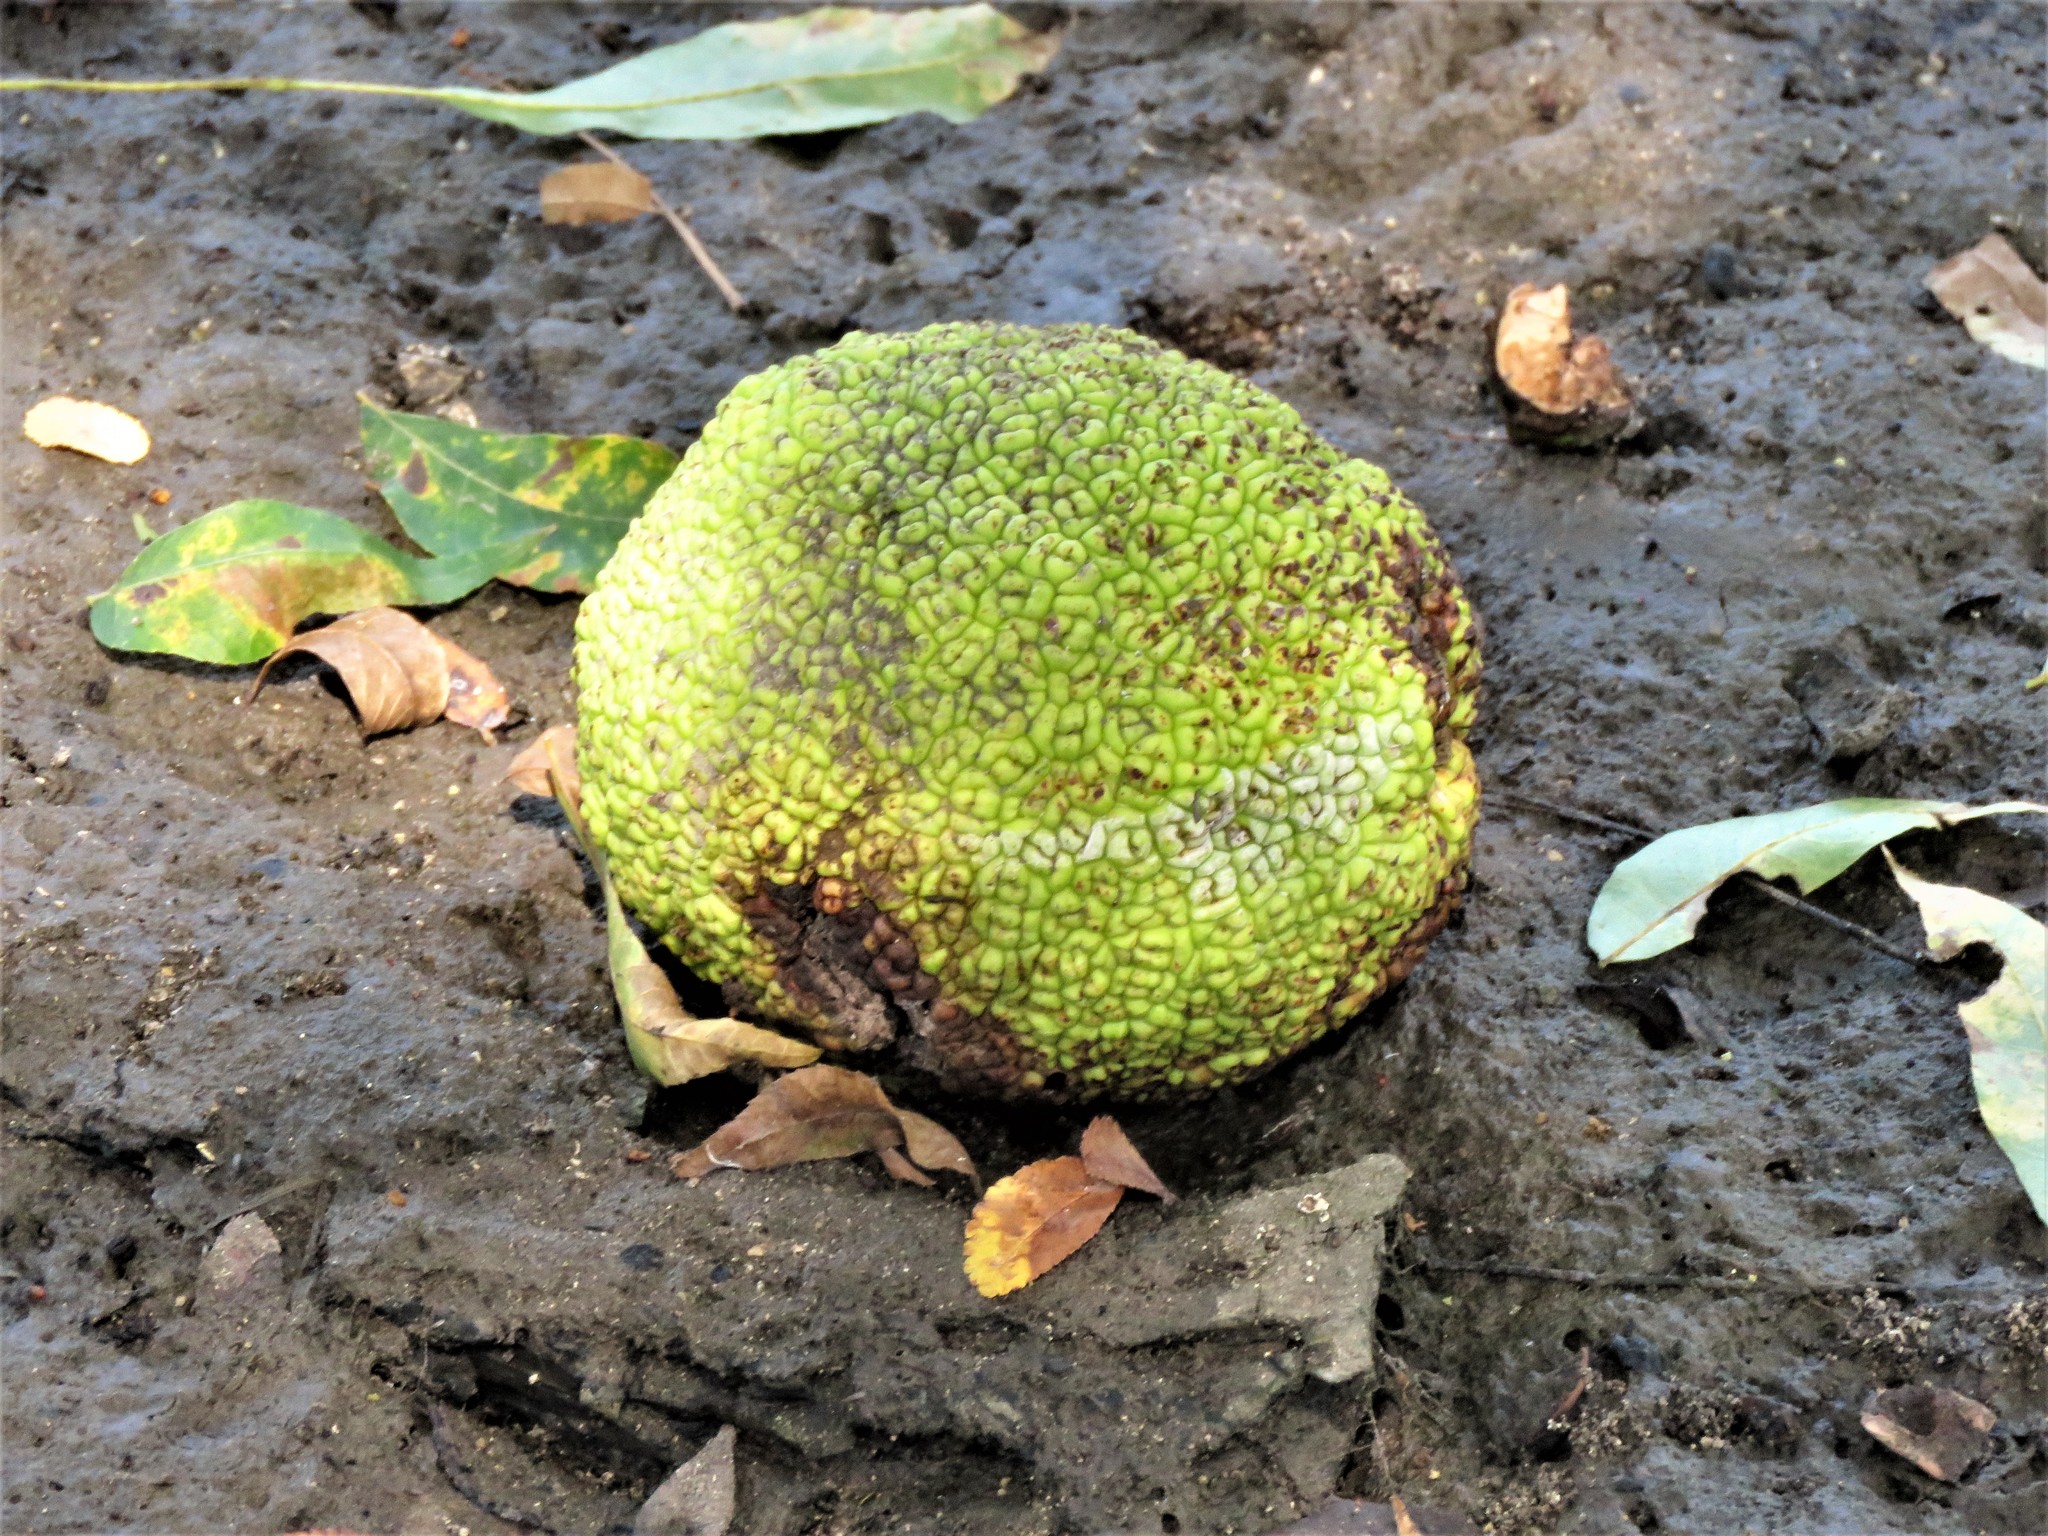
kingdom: Plantae
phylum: Tracheophyta
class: Magnoliopsida
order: Rosales
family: Moraceae
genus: Maclura
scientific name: Maclura pomifera
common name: Osage-orange
